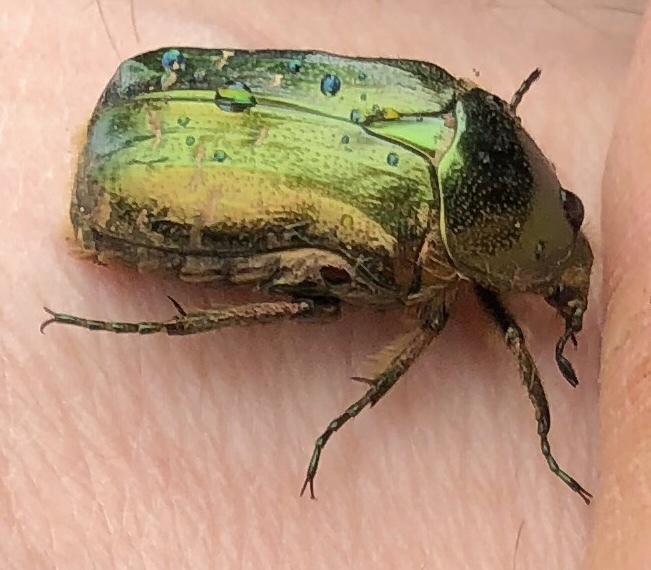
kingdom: Animalia
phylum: Arthropoda
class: Insecta
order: Coleoptera
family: Scarabaeidae
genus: Cetonia
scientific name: Cetonia
